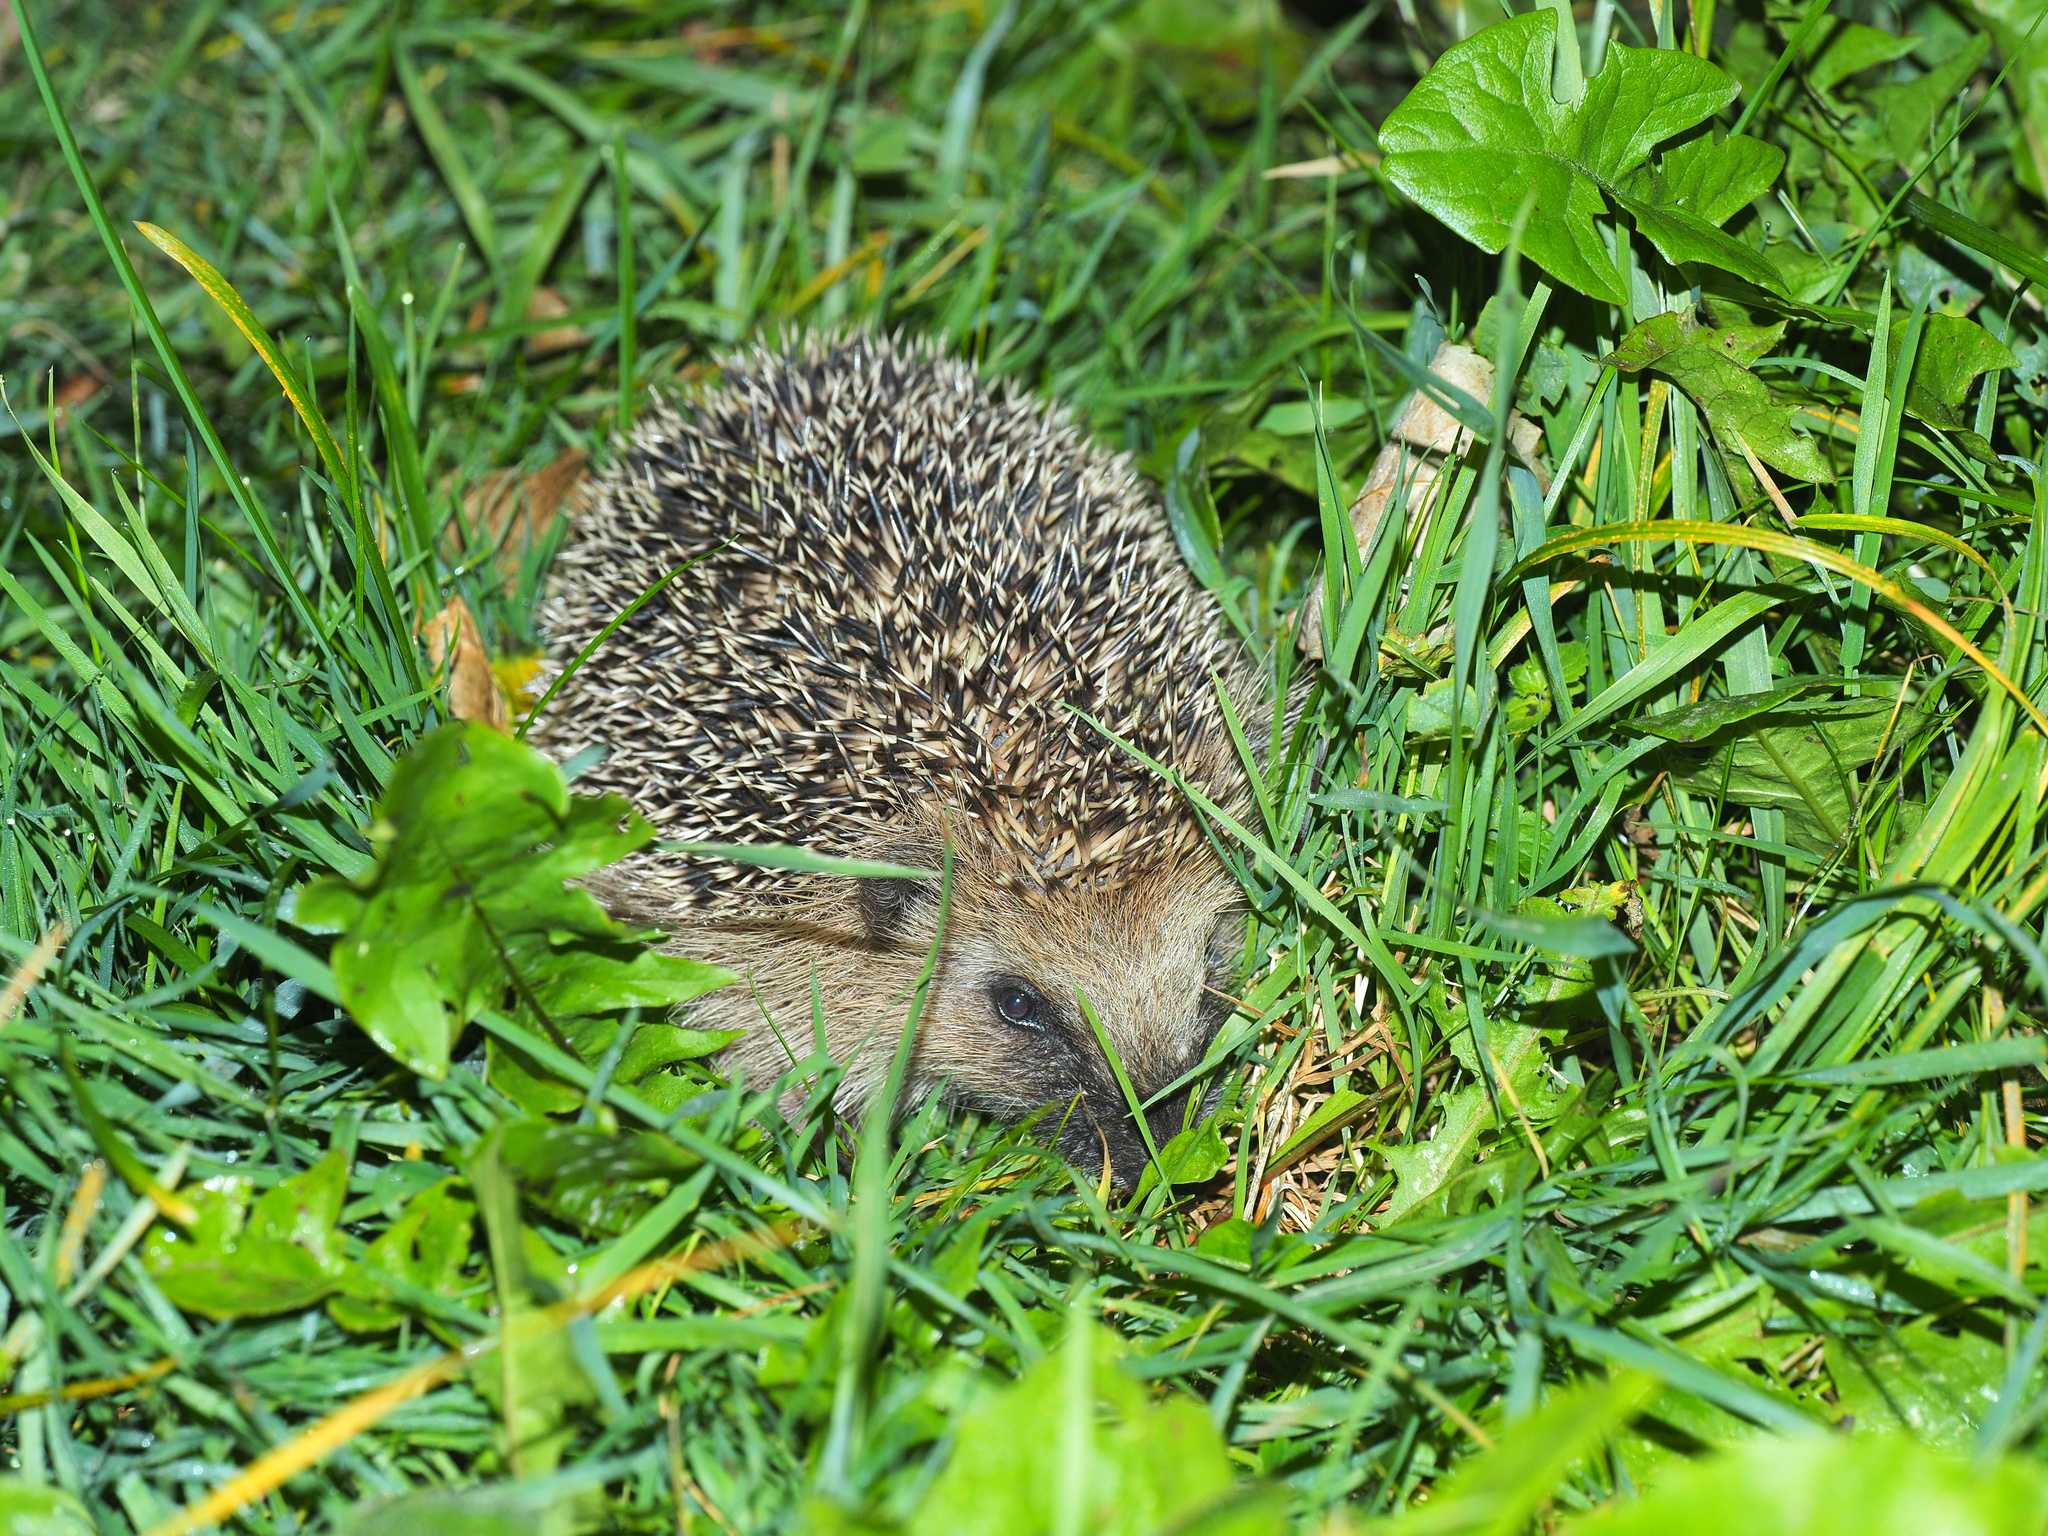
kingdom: Animalia
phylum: Chordata
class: Mammalia
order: Erinaceomorpha
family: Erinaceidae
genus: Erinaceus
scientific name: Erinaceus europaeus
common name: West european hedgehog
